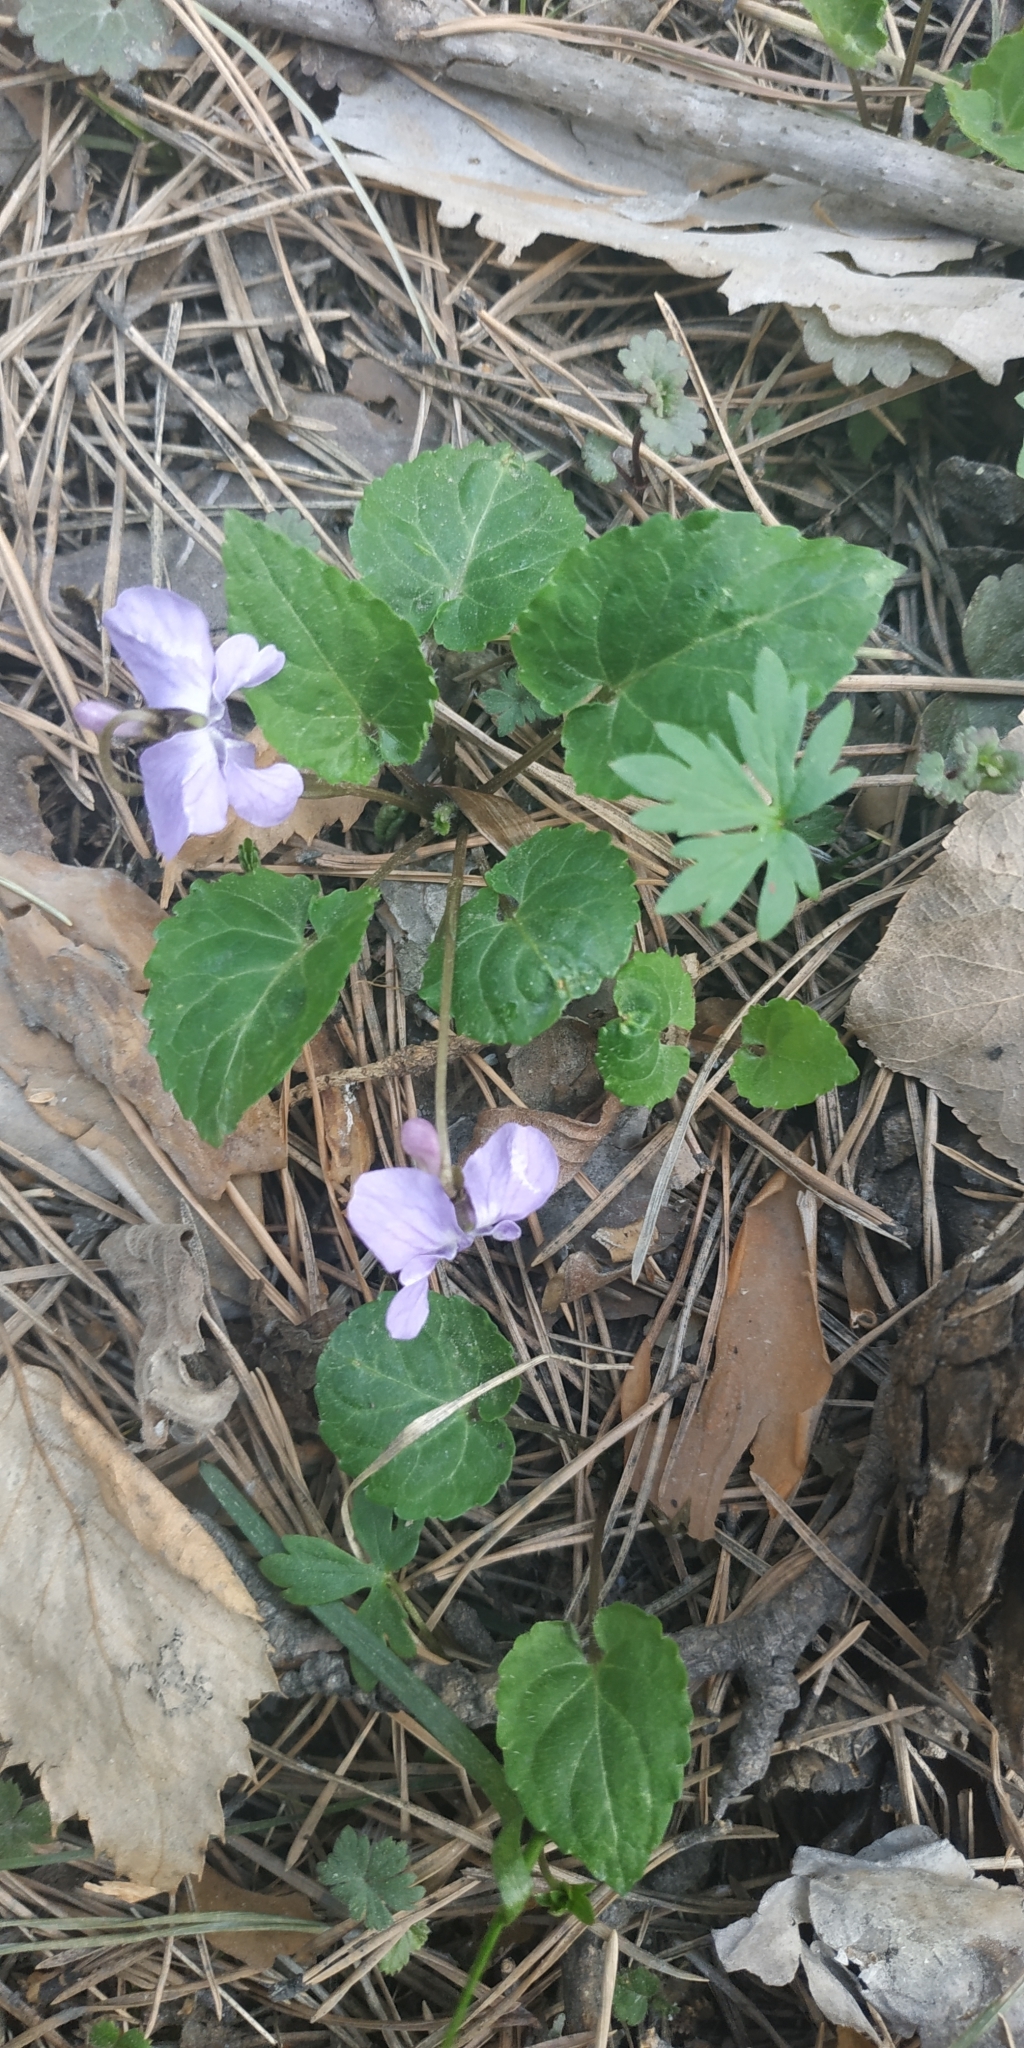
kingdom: Plantae
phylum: Tracheophyta
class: Magnoliopsida
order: Malpighiales
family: Violaceae
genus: Viola
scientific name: Viola selkirkii
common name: Selkirk's violet
